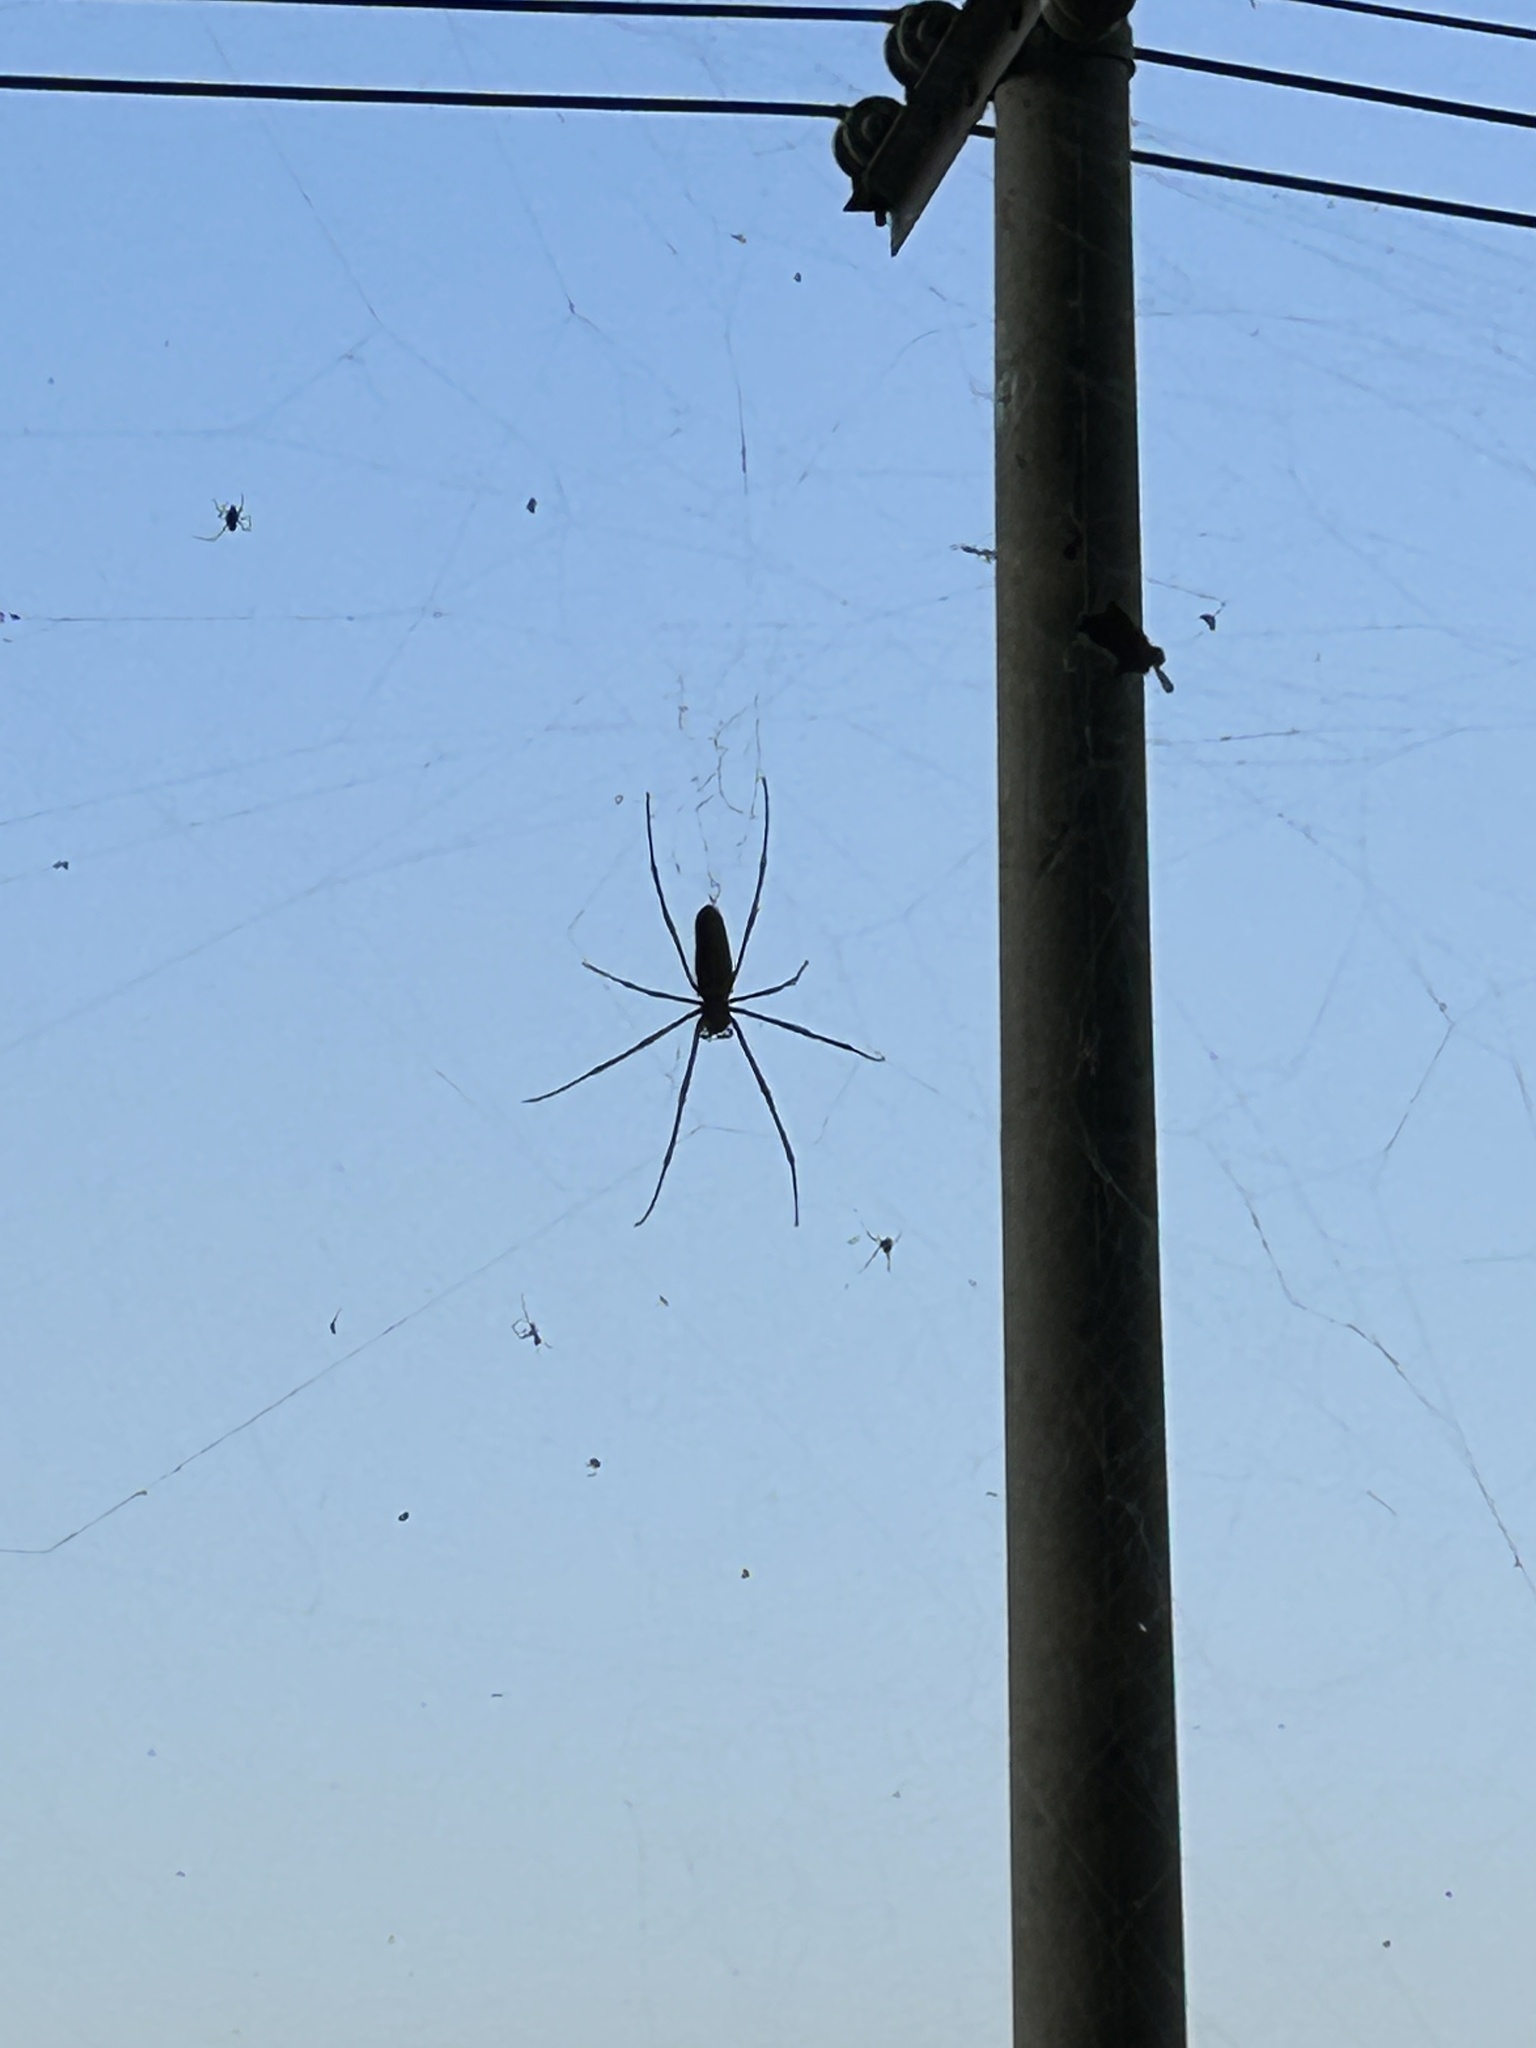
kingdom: Animalia
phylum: Arthropoda
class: Arachnida
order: Araneae
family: Araneidae
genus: Nephila
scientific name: Nephila pilipes
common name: Giant golden orb weaver
